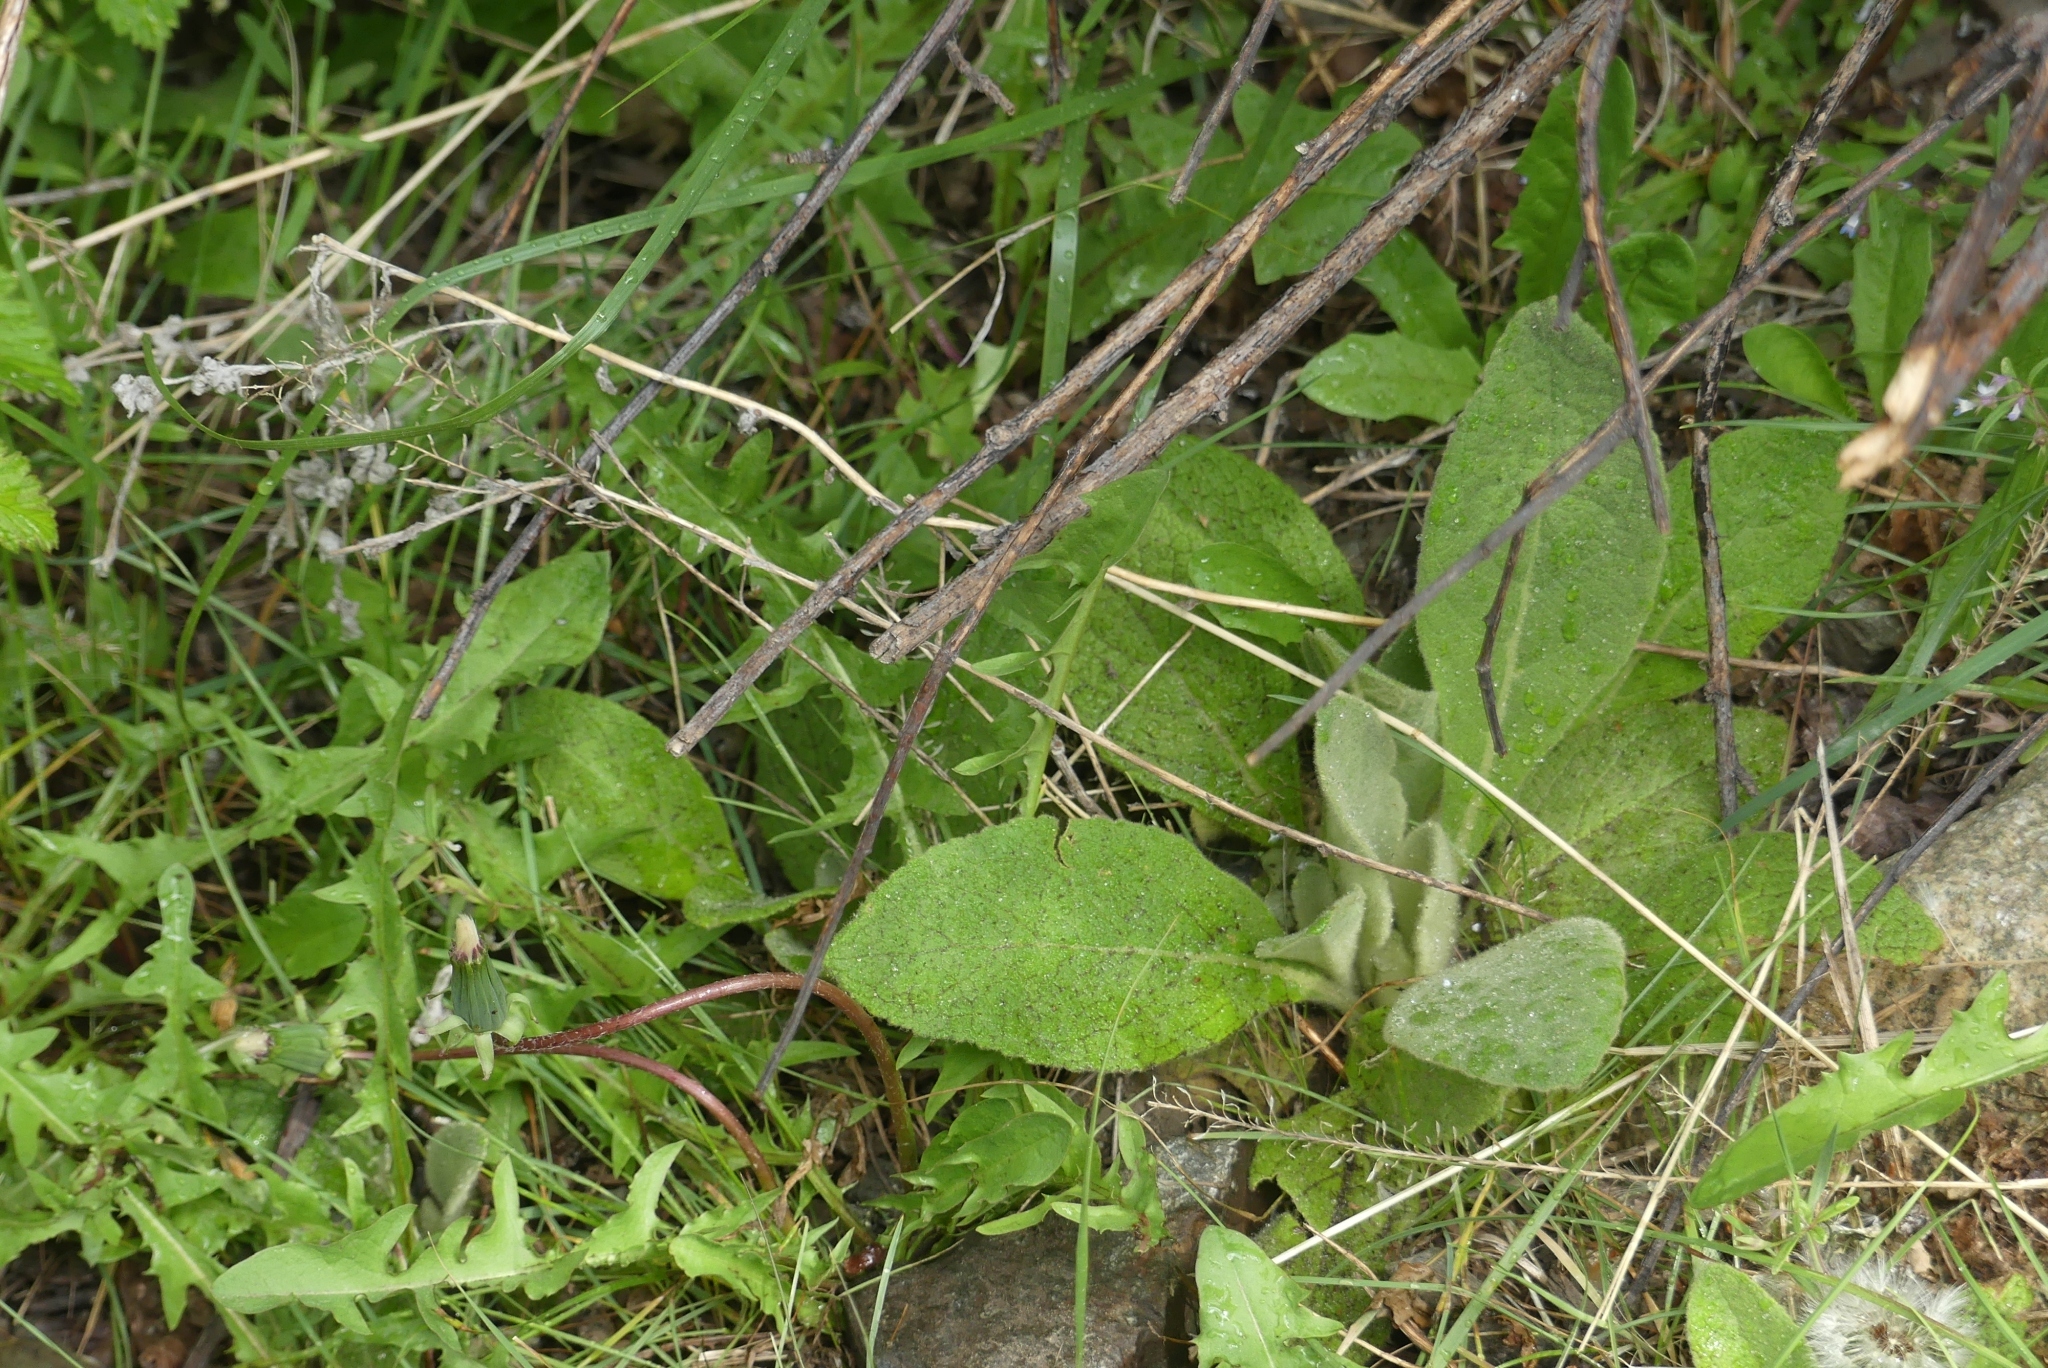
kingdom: Plantae
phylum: Tracheophyta
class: Magnoliopsida
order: Lamiales
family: Scrophulariaceae
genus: Verbascum
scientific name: Verbascum thapsus
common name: Common mullein
